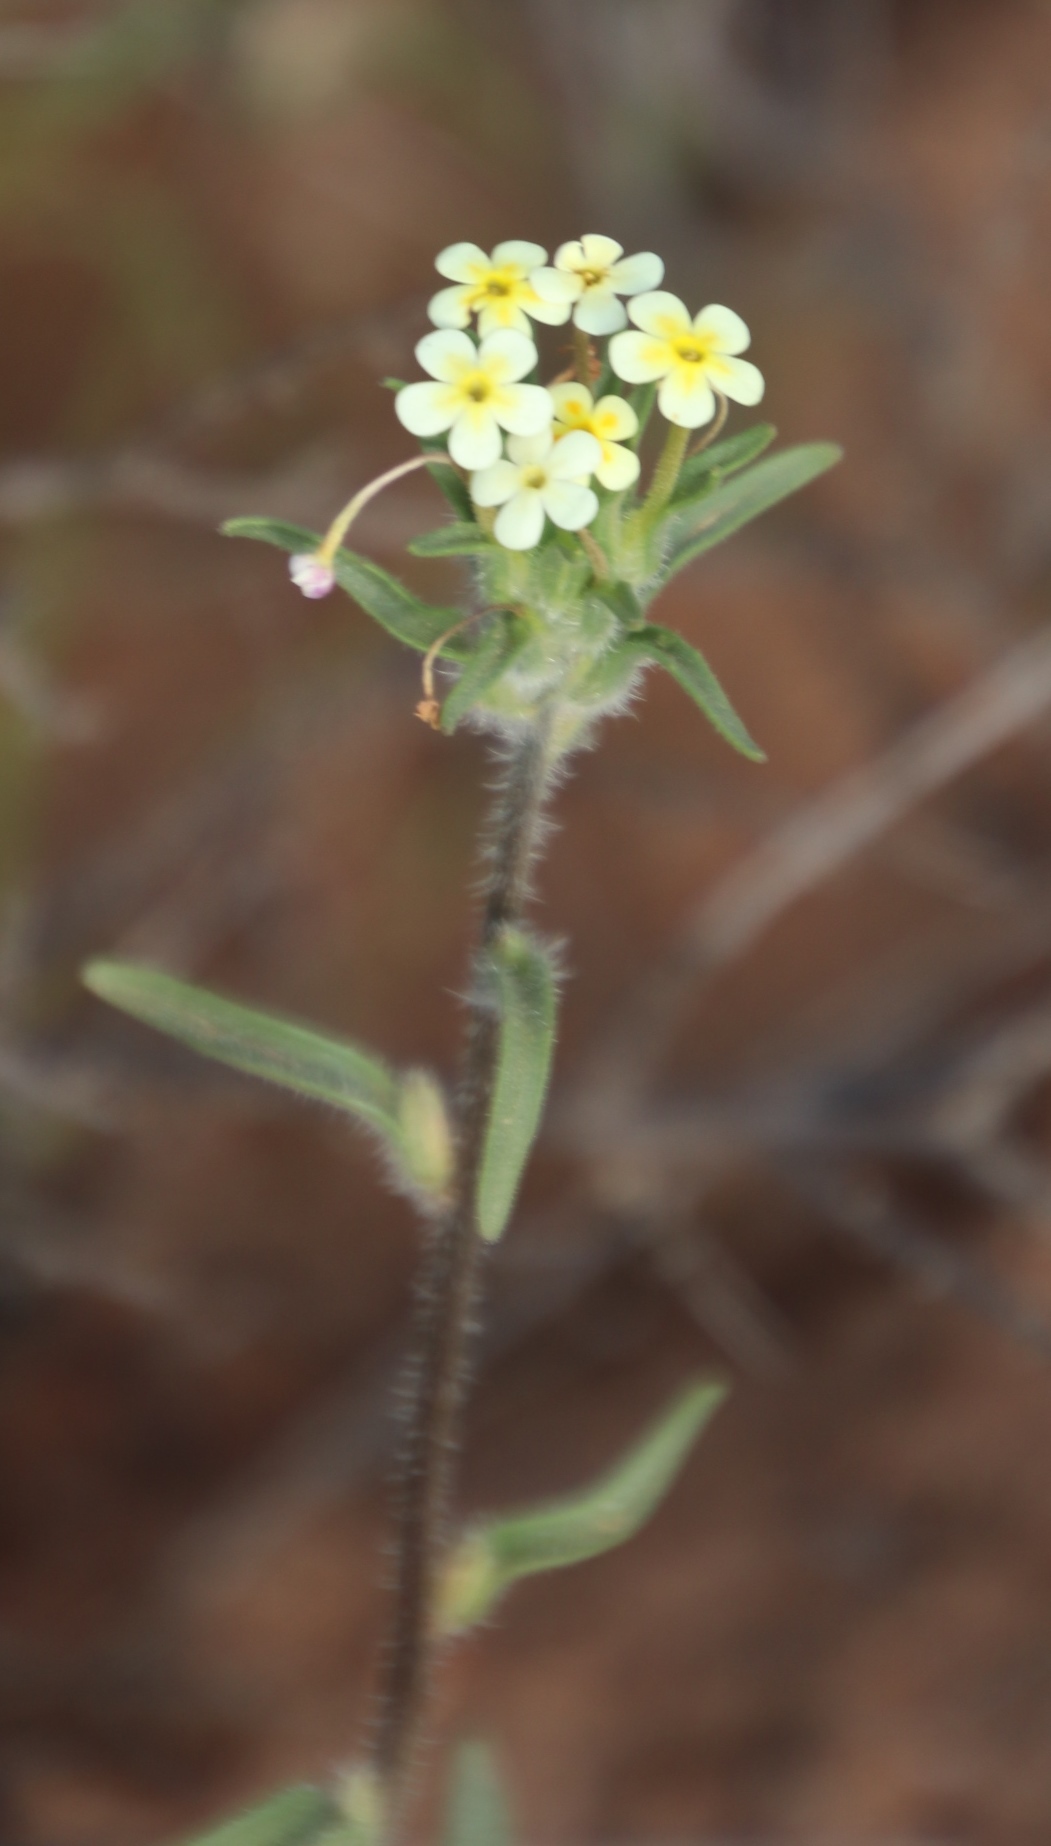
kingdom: Plantae
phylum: Tracheophyta
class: Magnoliopsida
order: Lamiales
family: Scrophulariaceae
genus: Zaluzianskya
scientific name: Zaluzianskya benthamiana
